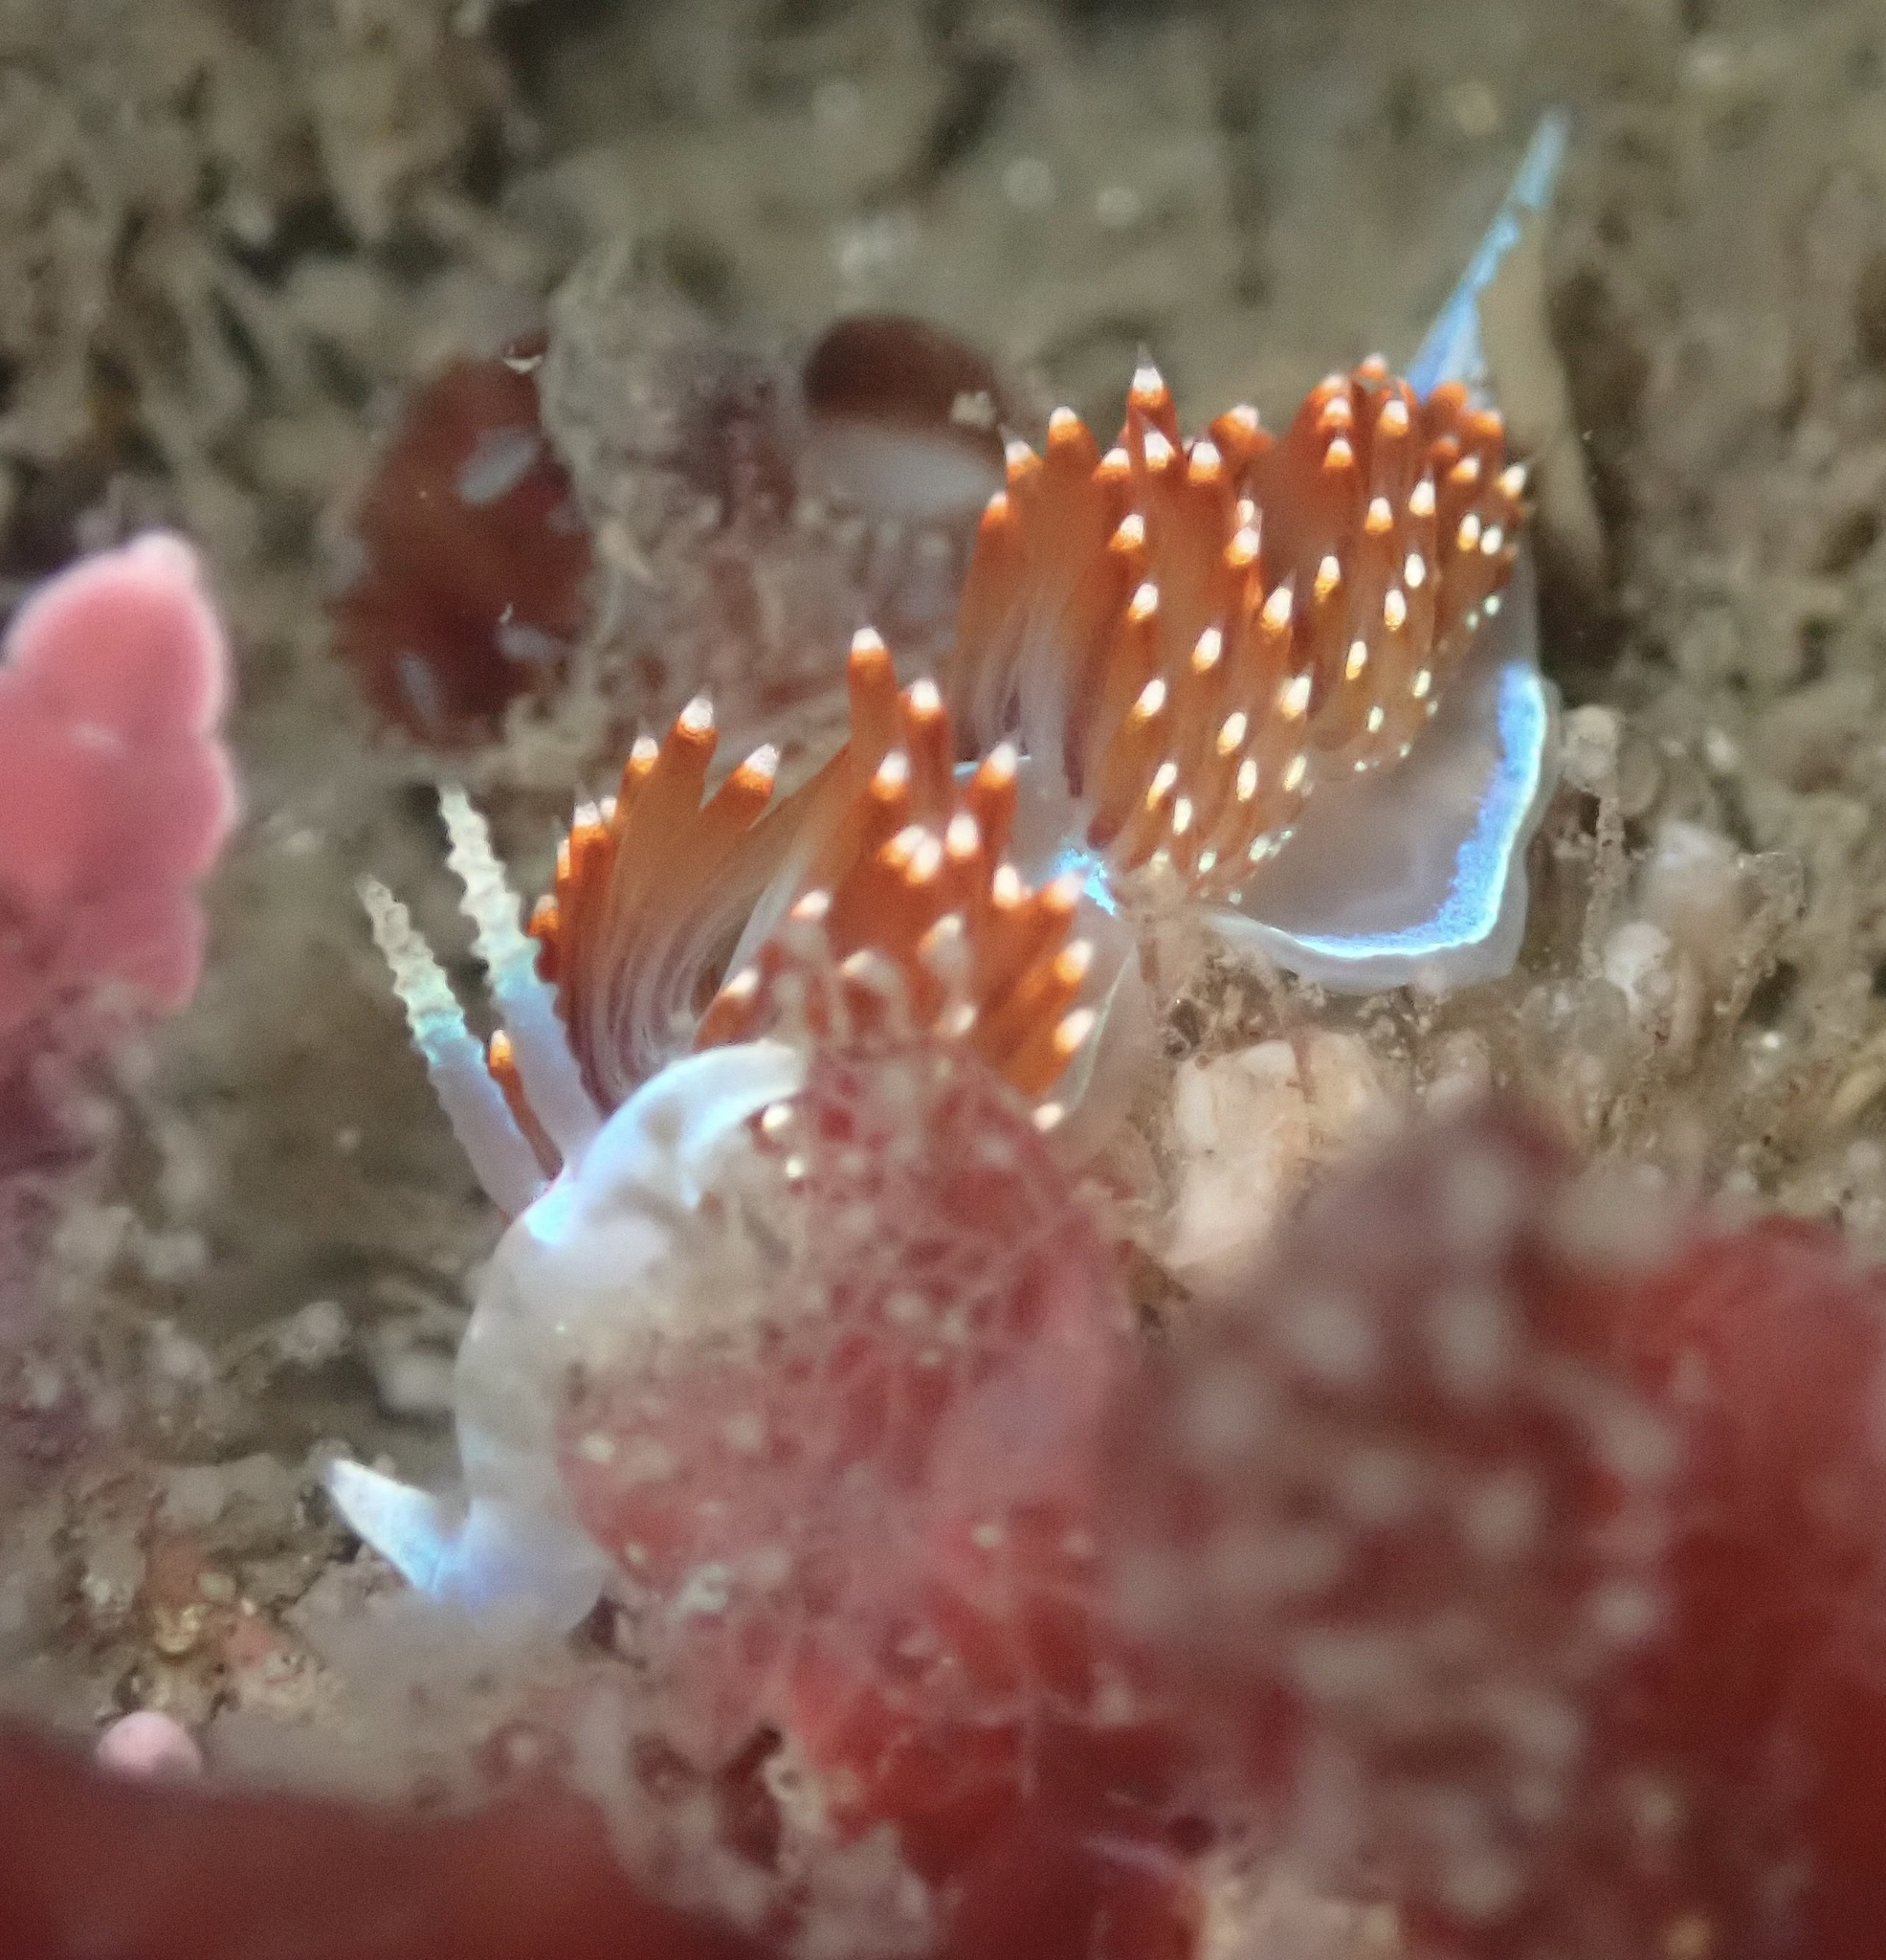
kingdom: Animalia
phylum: Mollusca
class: Gastropoda
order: Nudibranchia
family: Myrrhinidae
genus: Hermissenda
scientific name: Hermissenda opalescens
